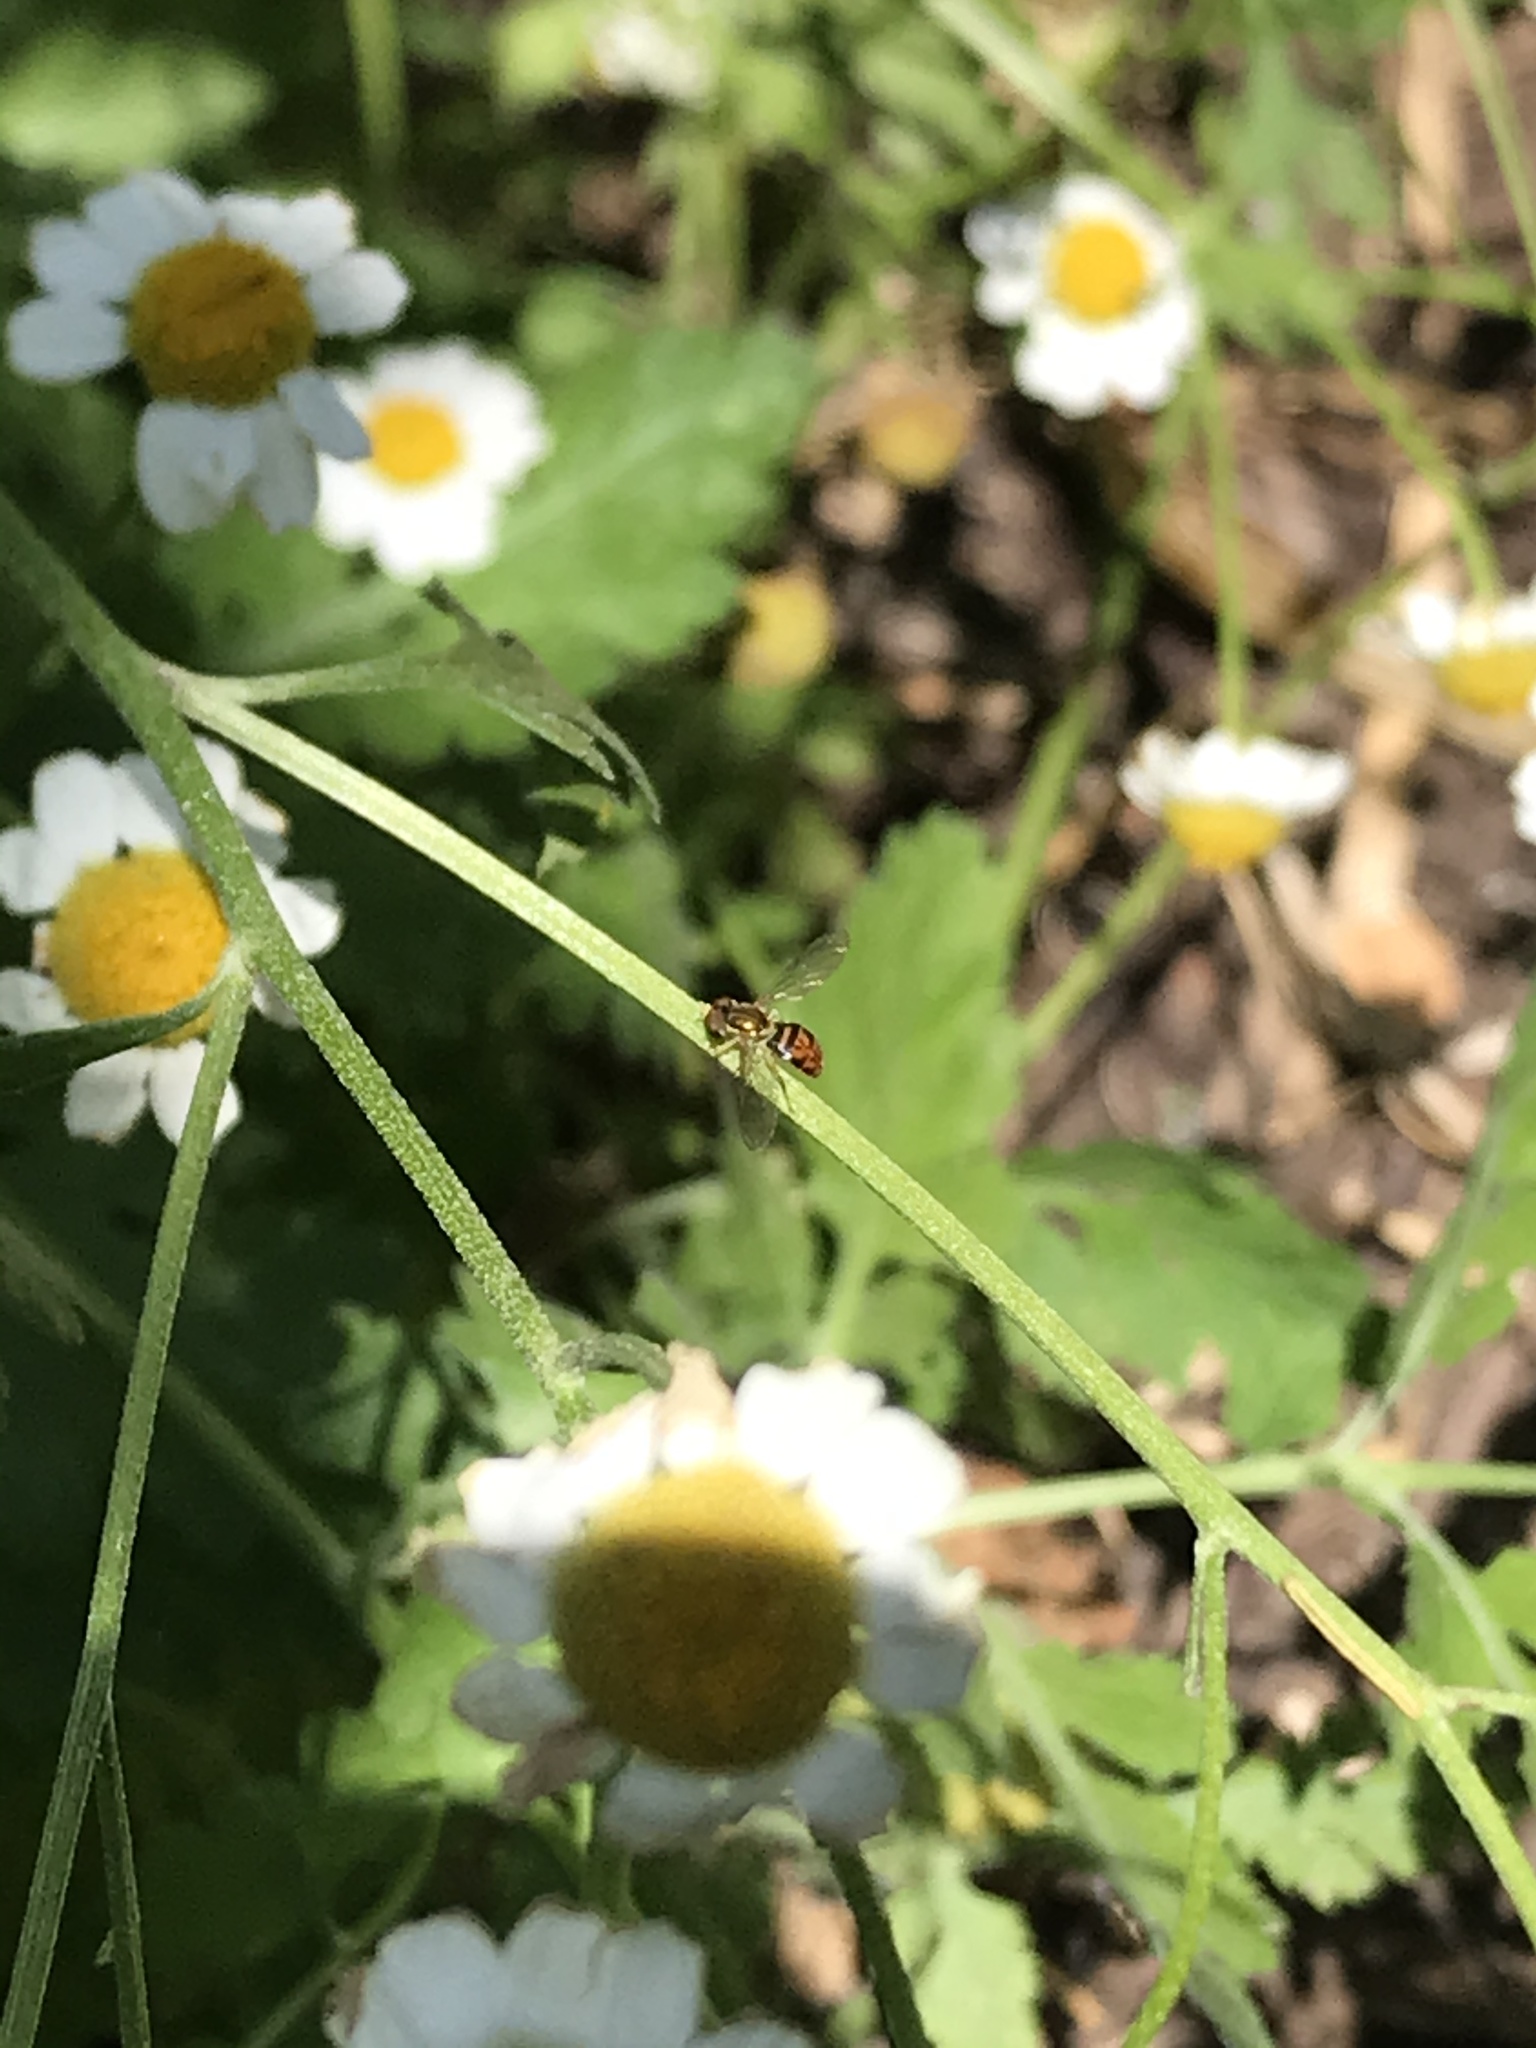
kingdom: Animalia
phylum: Arthropoda
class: Insecta
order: Diptera
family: Syrphidae
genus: Toxomerus
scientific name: Toxomerus marginatus
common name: Syrphid fly
